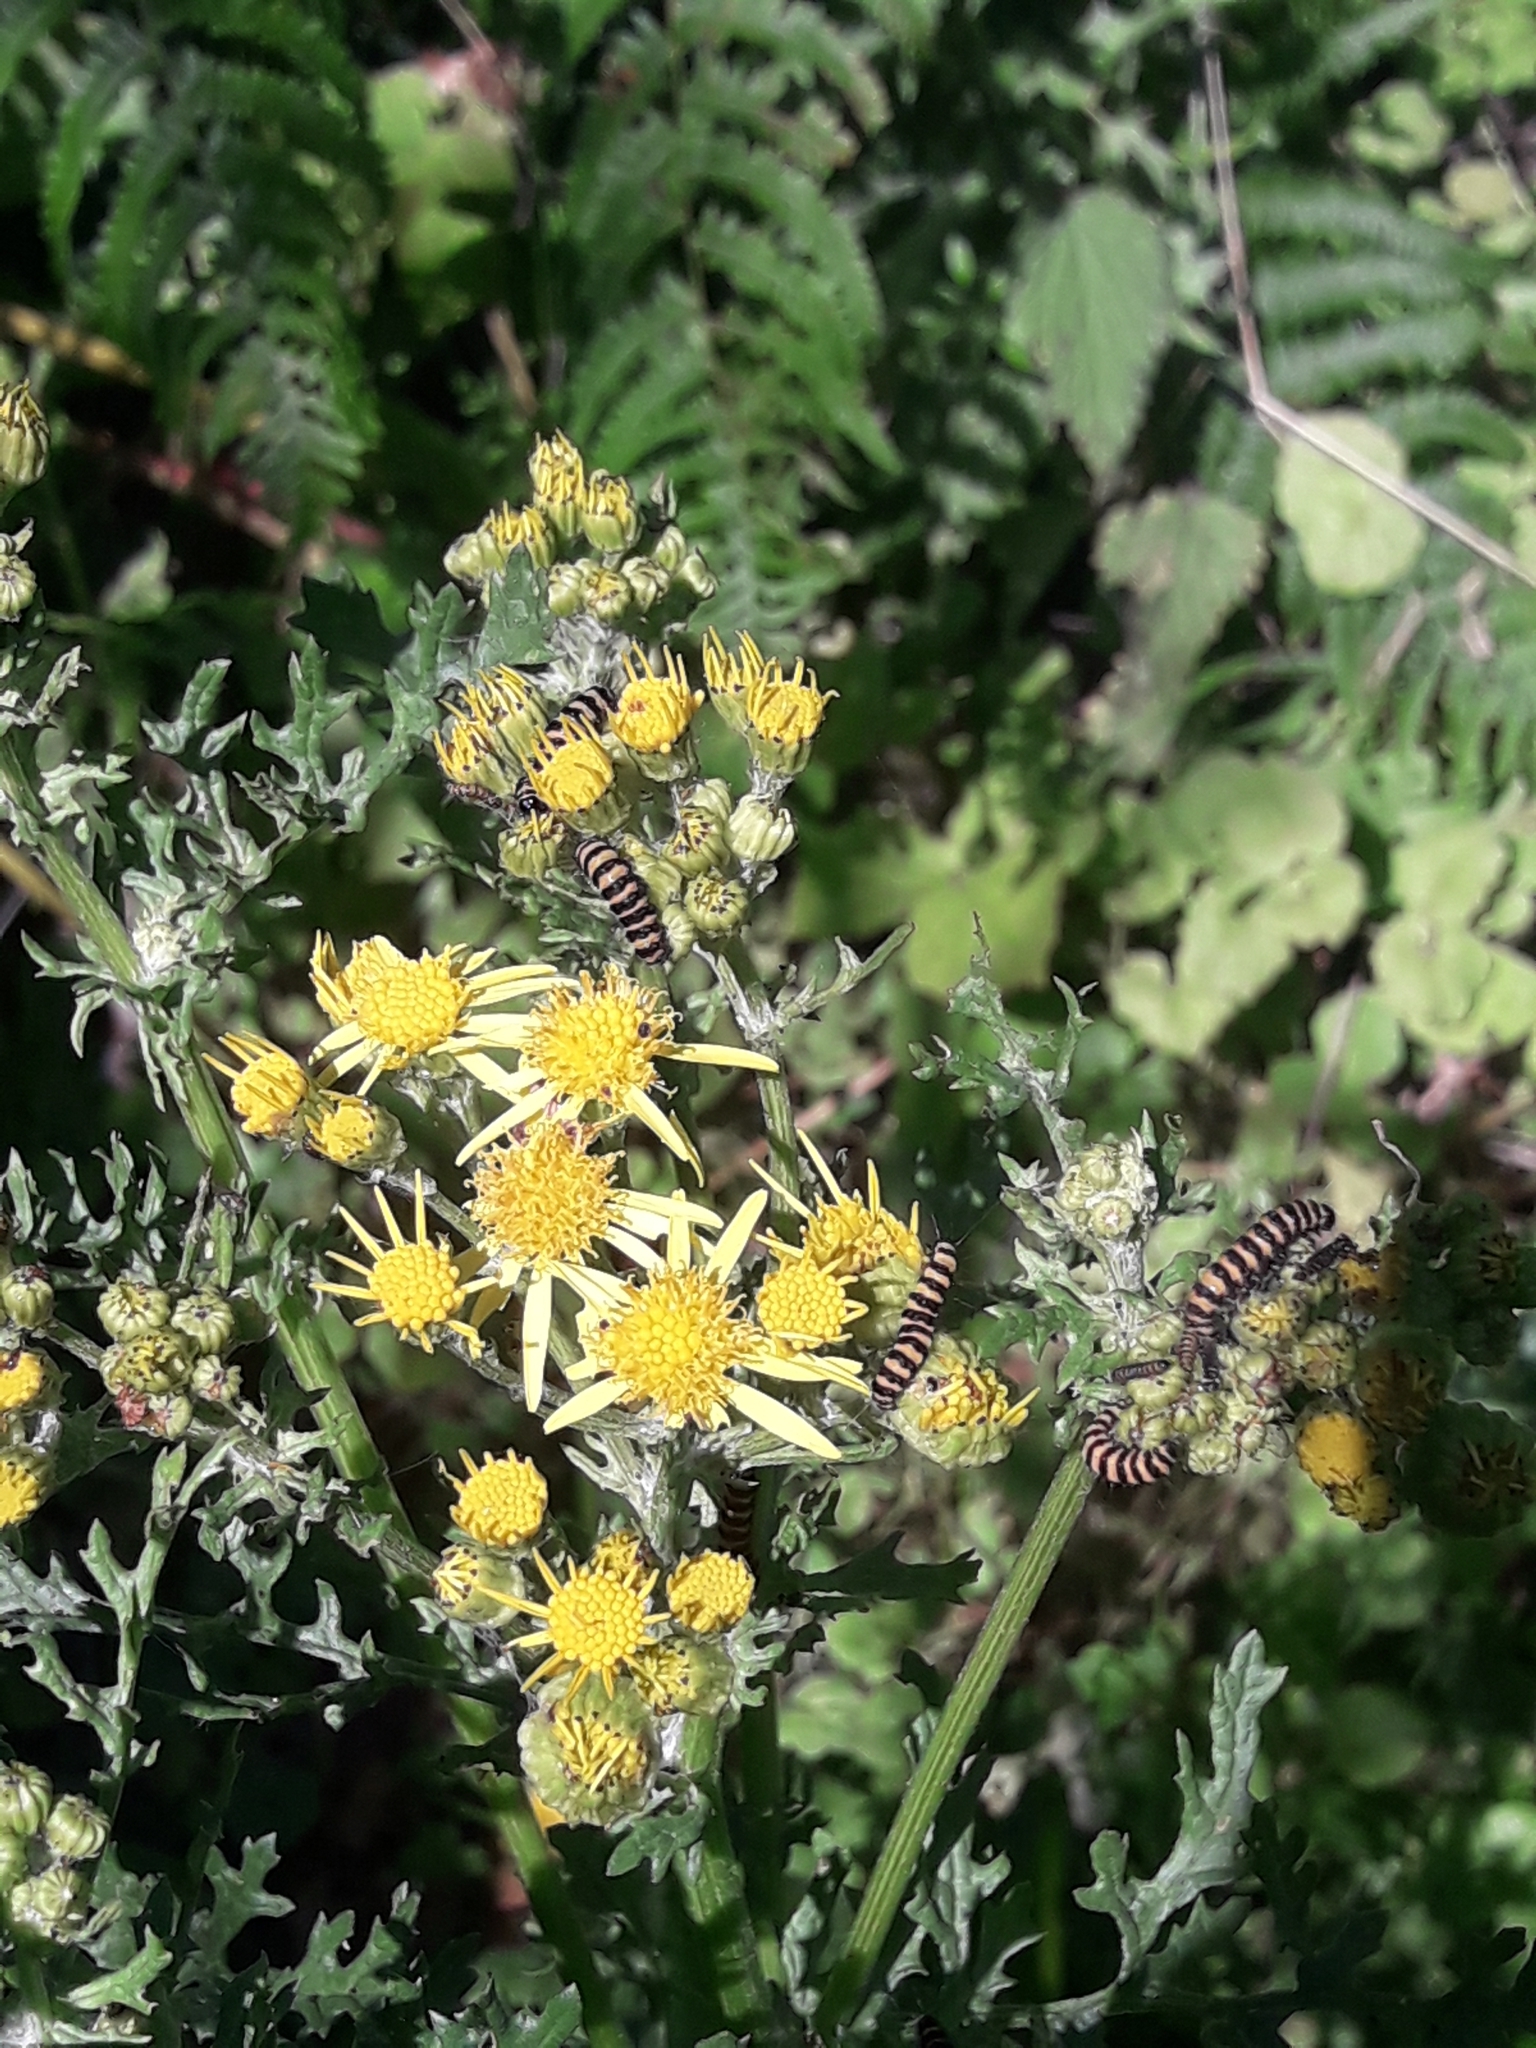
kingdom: Animalia
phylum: Arthropoda
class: Insecta
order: Lepidoptera
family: Erebidae
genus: Tyria
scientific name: Tyria jacobaeae
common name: Cinnabar
